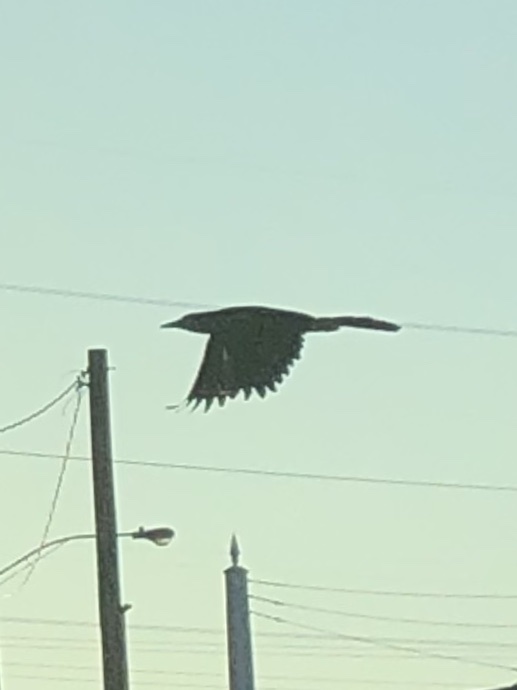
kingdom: Animalia
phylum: Chordata
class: Aves
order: Passeriformes
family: Icteridae
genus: Quiscalus
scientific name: Quiscalus mexicanus
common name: Great-tailed grackle
